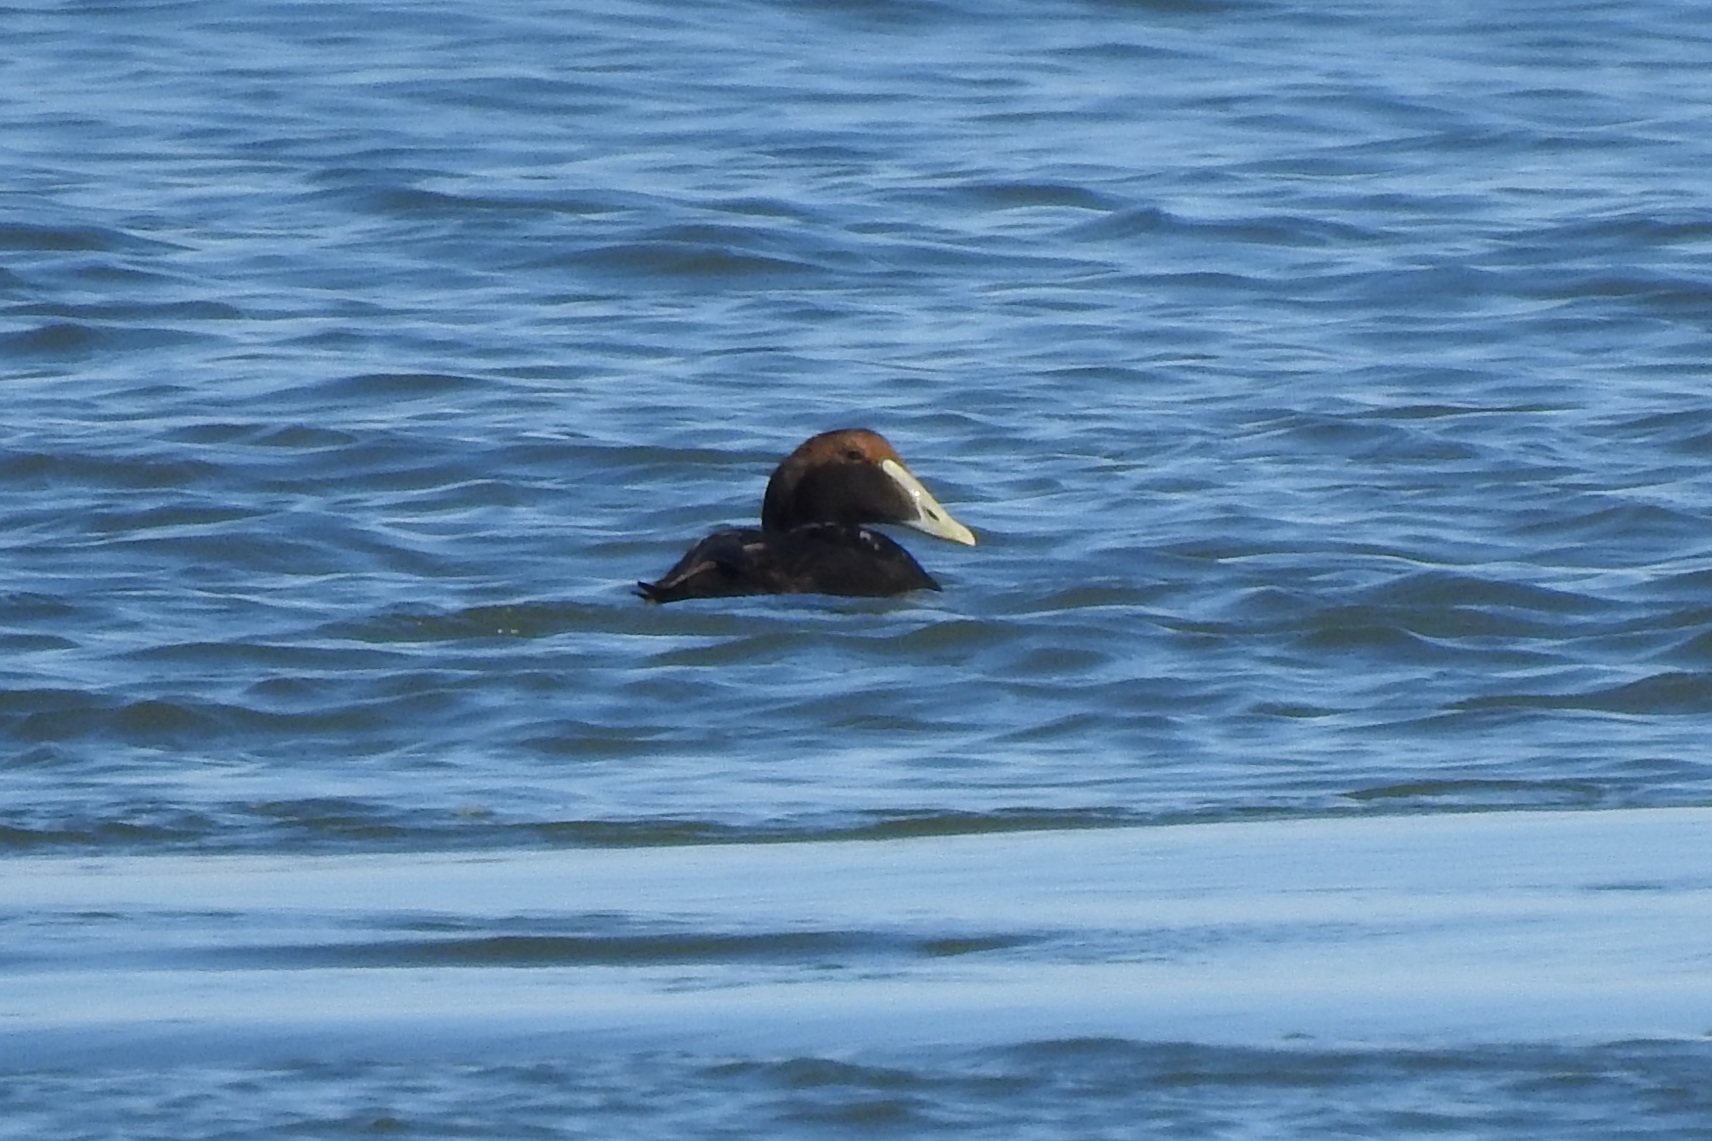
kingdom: Animalia
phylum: Chordata
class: Aves
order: Anseriformes
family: Anatidae
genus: Somateria
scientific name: Somateria mollissima
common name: Common eider
